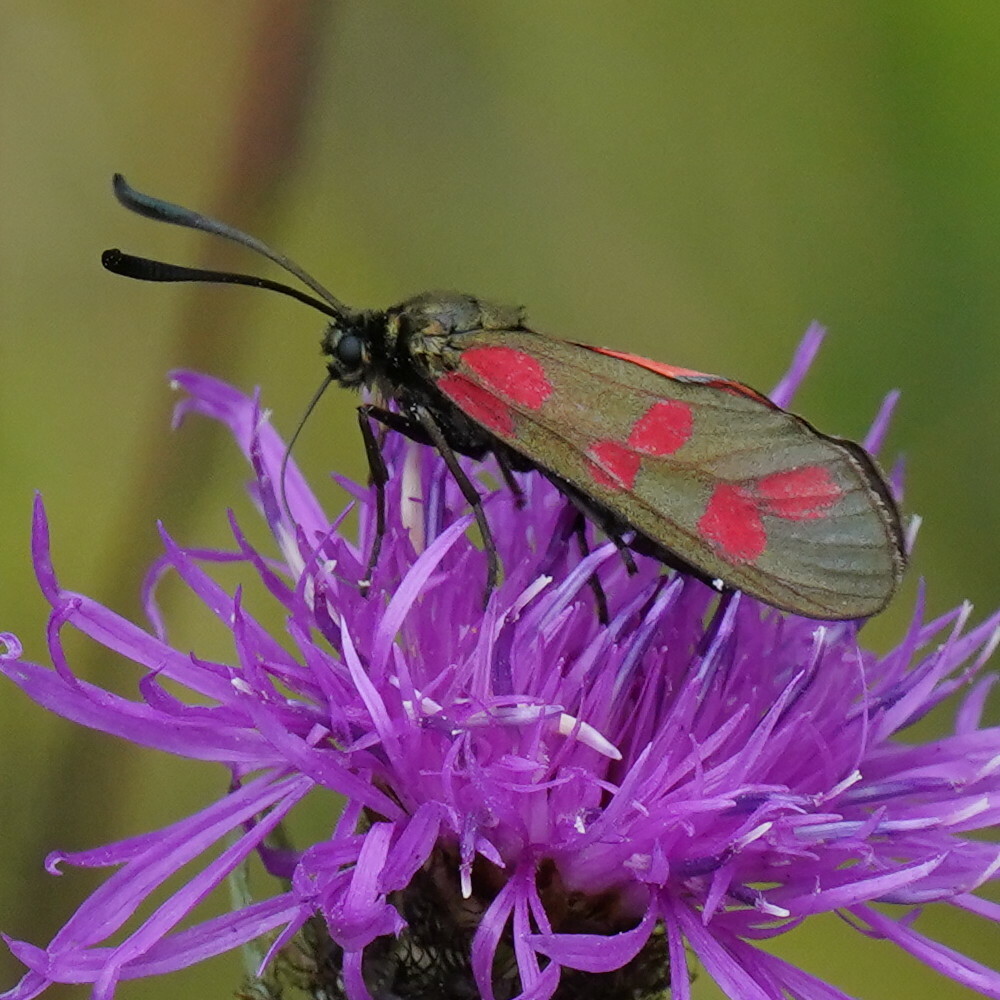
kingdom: Animalia
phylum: Arthropoda
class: Insecta
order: Lepidoptera
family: Zygaenidae
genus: Zygaena
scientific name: Zygaena filipendulae
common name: Six-spot burnet
